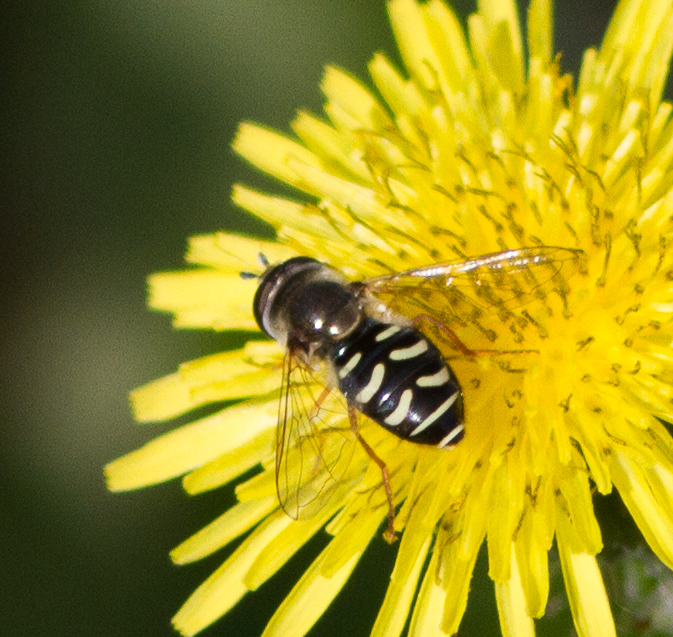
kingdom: Animalia
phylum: Arthropoda
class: Insecta
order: Diptera
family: Syrphidae
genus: Eupeodes
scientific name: Eupeodes volucris
